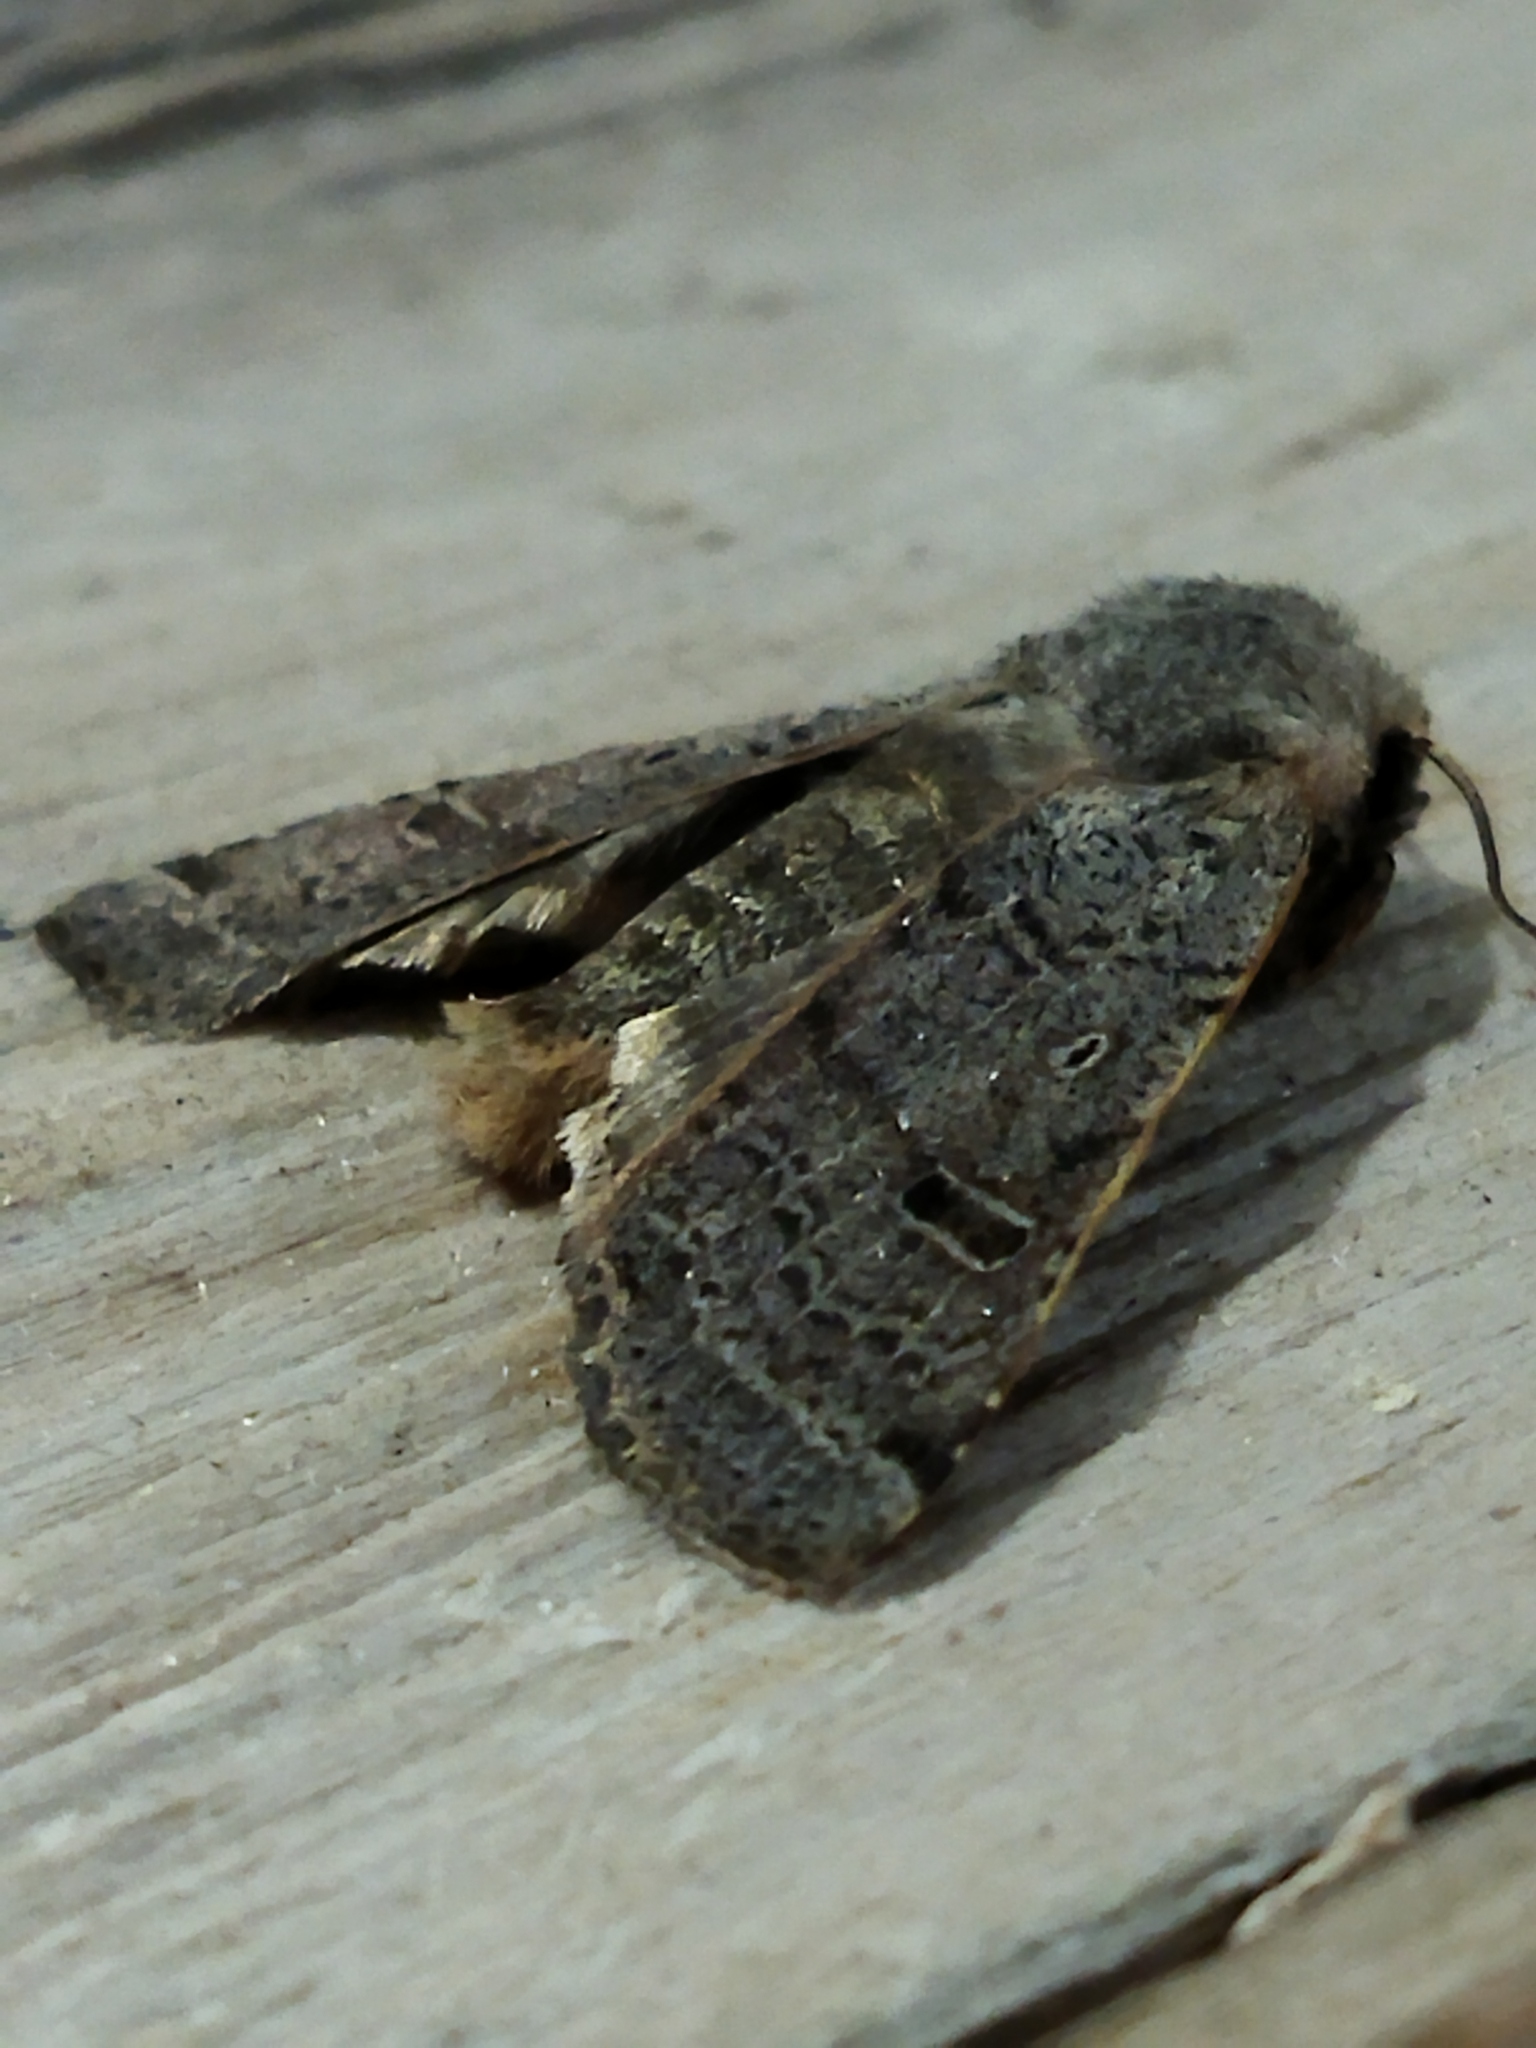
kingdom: Animalia
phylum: Arthropoda
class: Insecta
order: Lepidoptera
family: Noctuidae
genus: Agrochola
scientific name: Agrochola lychnidis
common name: Beaded chestnut
